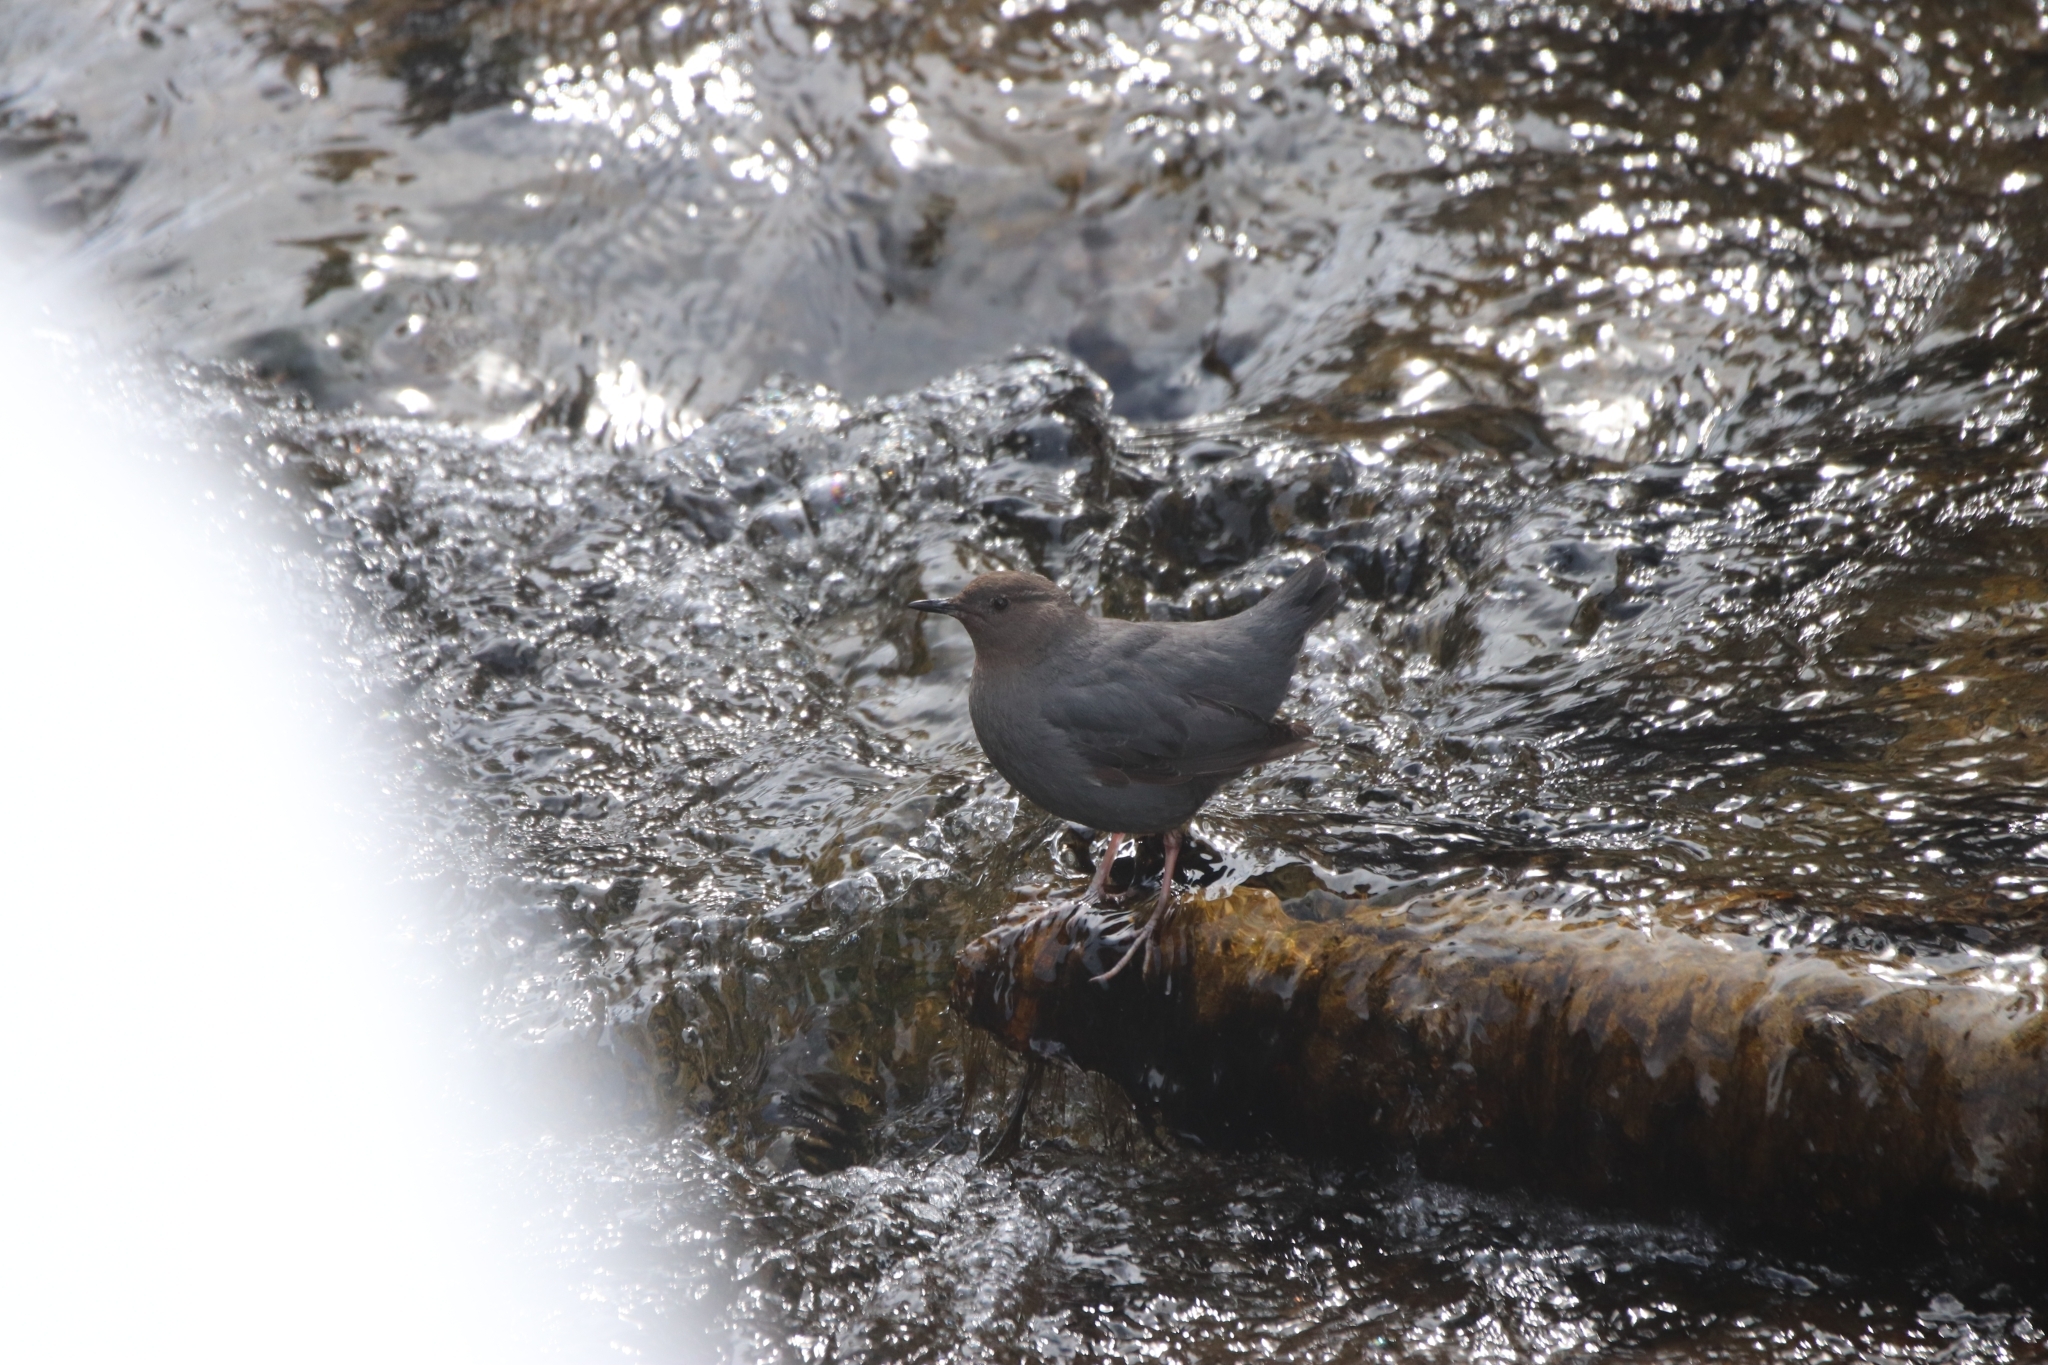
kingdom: Animalia
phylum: Chordata
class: Aves
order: Passeriformes
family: Cinclidae
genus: Cinclus
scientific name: Cinclus mexicanus
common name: American dipper
